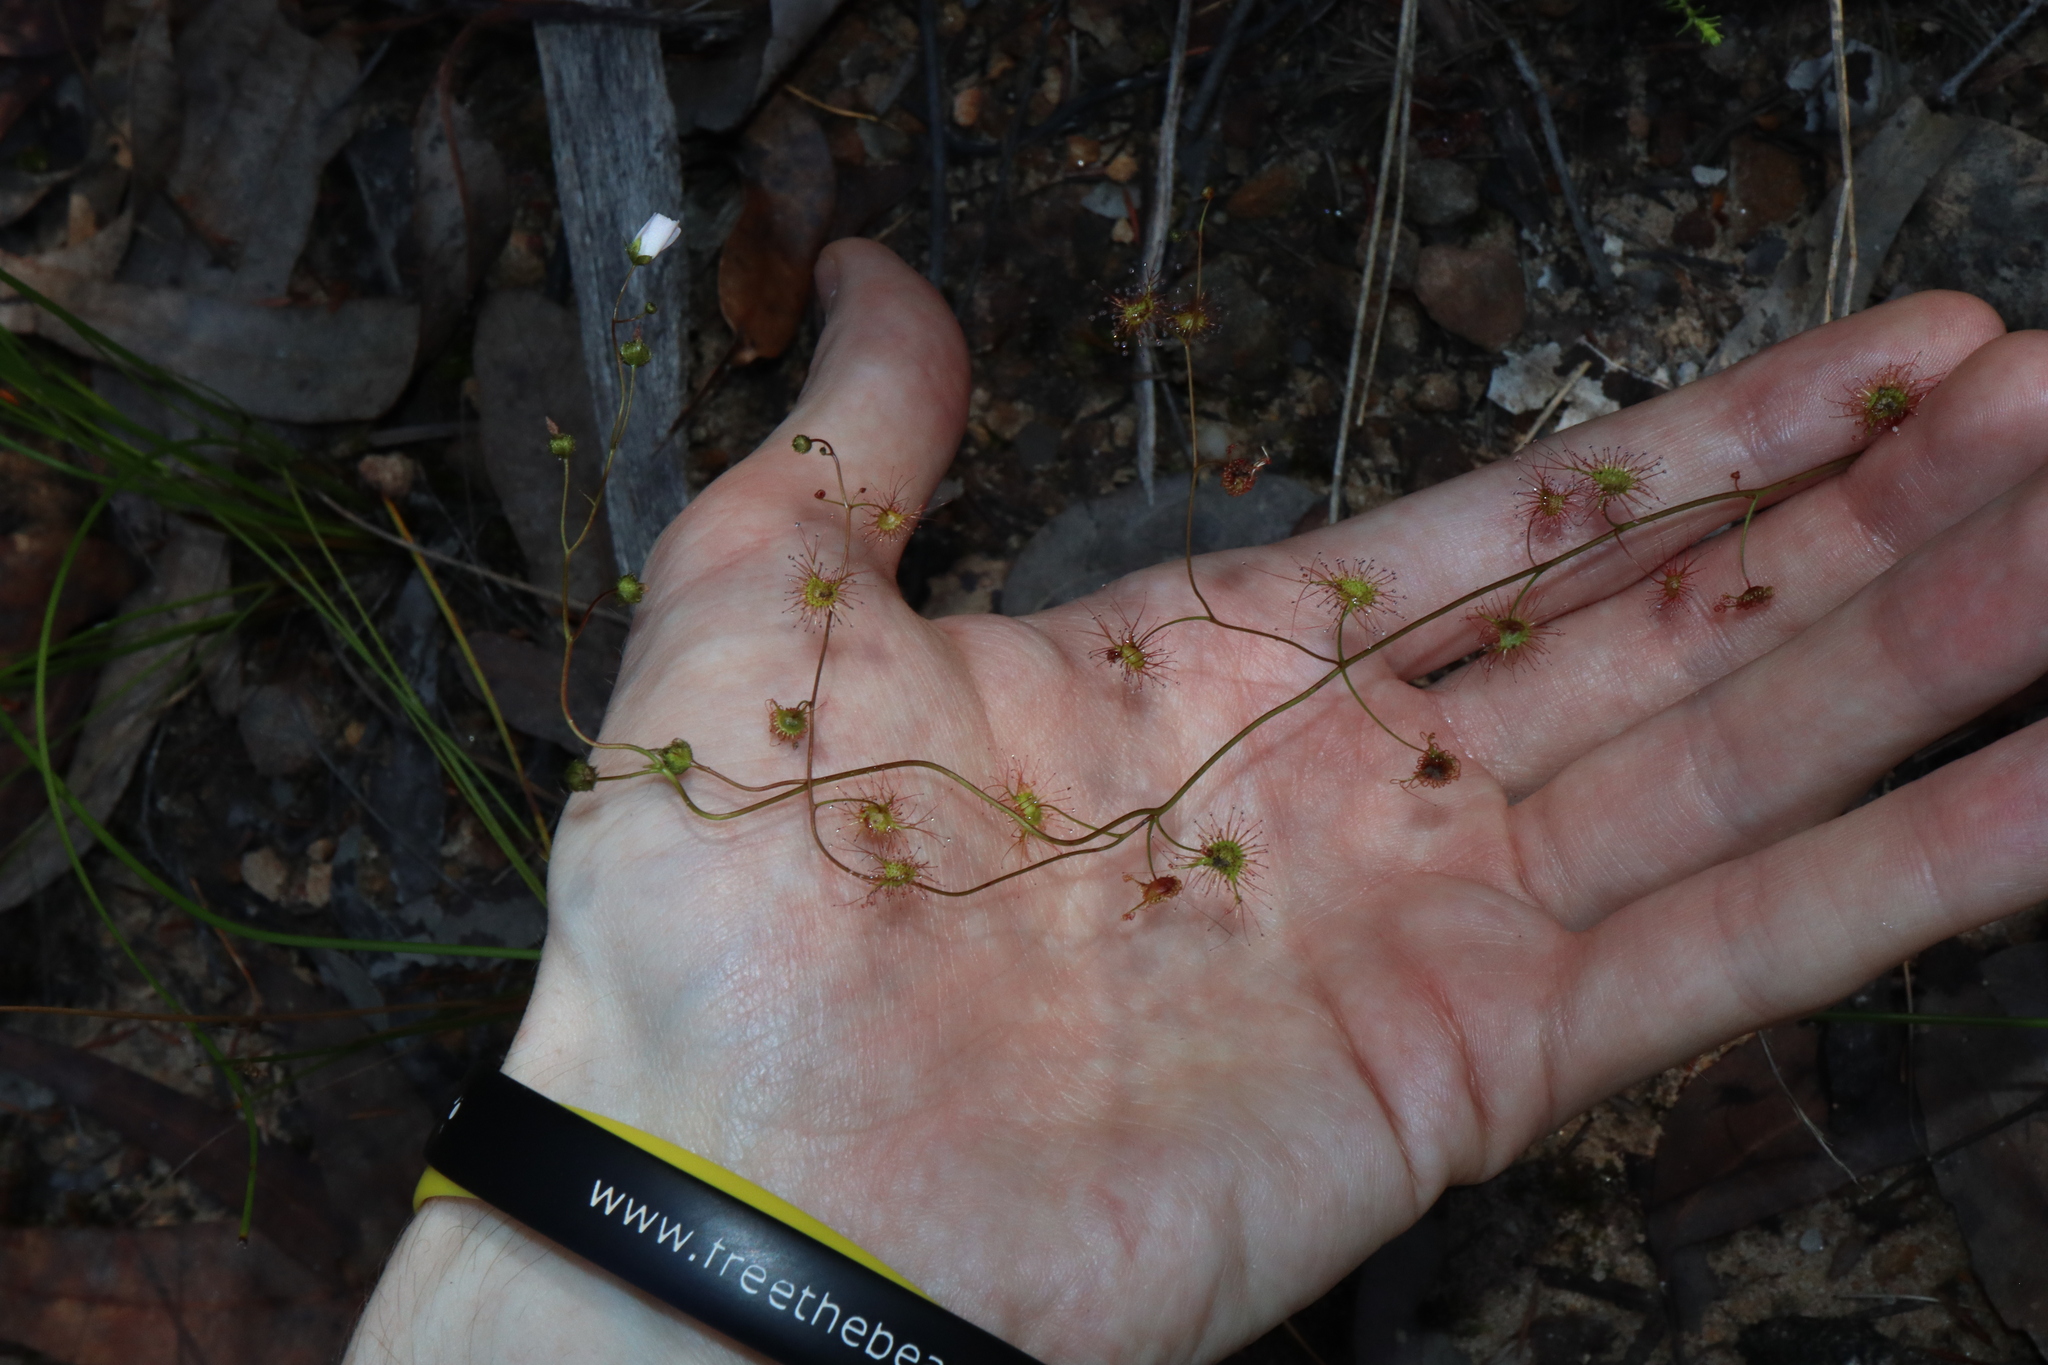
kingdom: Plantae
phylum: Tracheophyta
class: Magnoliopsida
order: Caryophyllales
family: Droseraceae
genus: Drosera
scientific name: Drosera peltata
